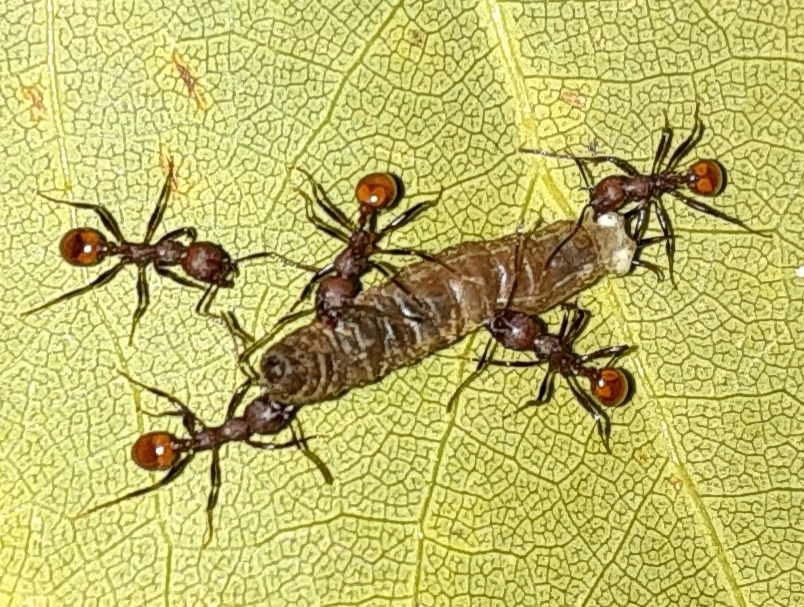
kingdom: Animalia
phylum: Arthropoda
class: Insecta
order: Hymenoptera
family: Formicidae
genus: Aphaenogaster
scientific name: Aphaenogaster tennesseensis
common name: Tennessee thread-waisted ant
